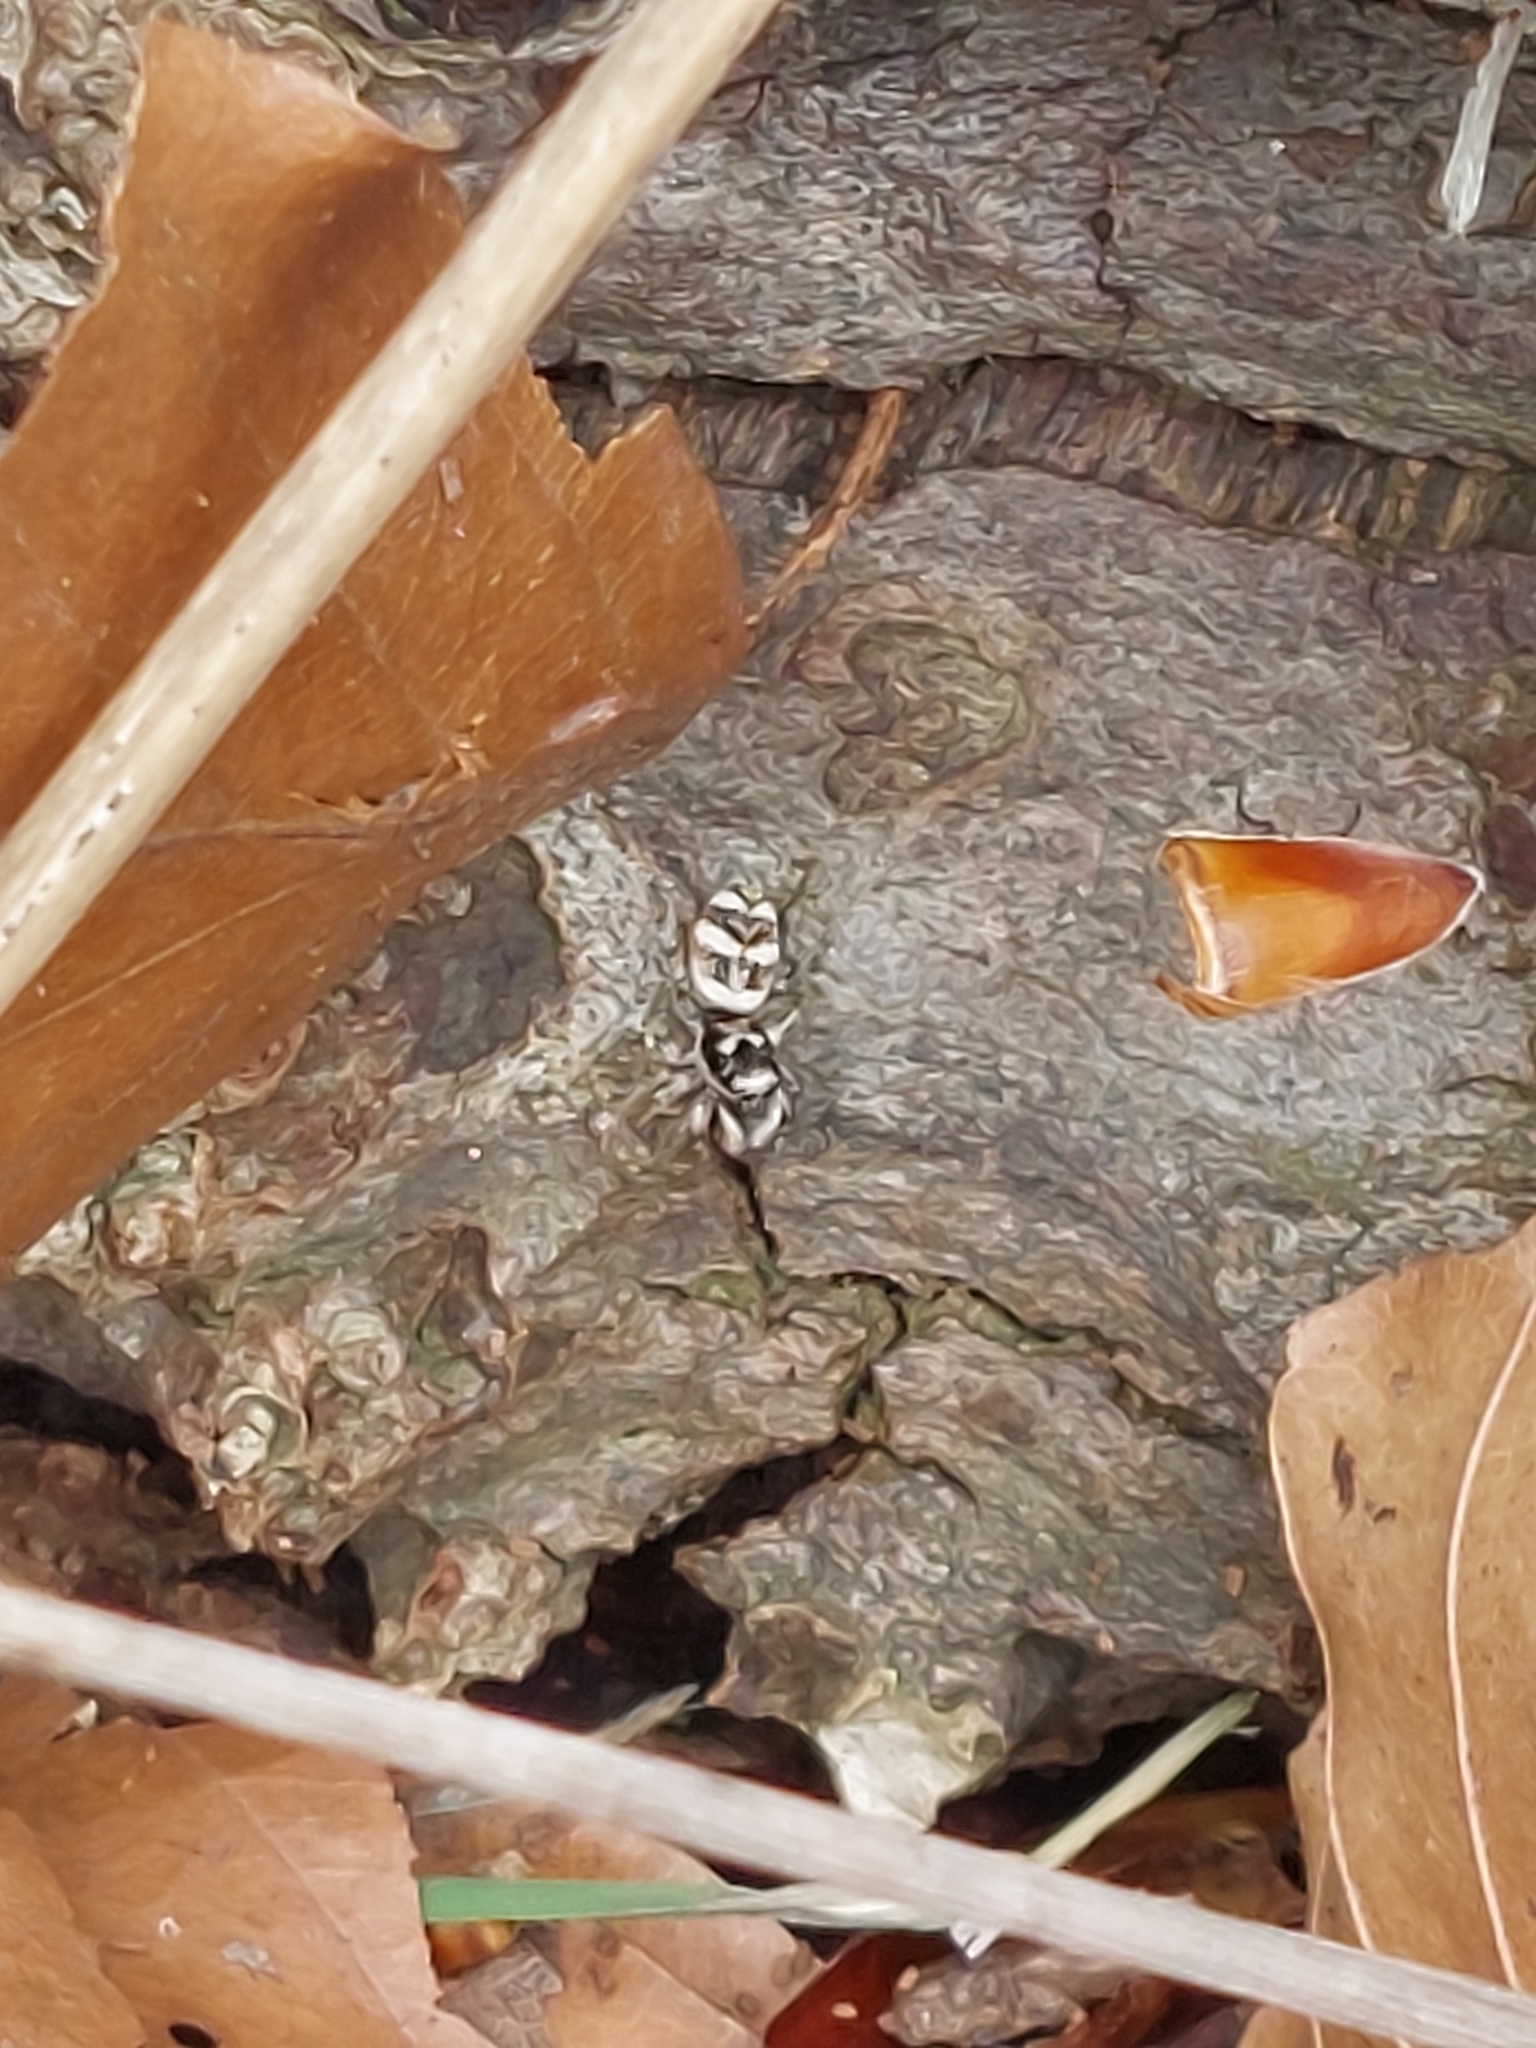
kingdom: Animalia
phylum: Arthropoda
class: Arachnida
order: Araneae
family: Salticidae
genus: Salticus
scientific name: Salticus scenicus
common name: Zebra jumper
